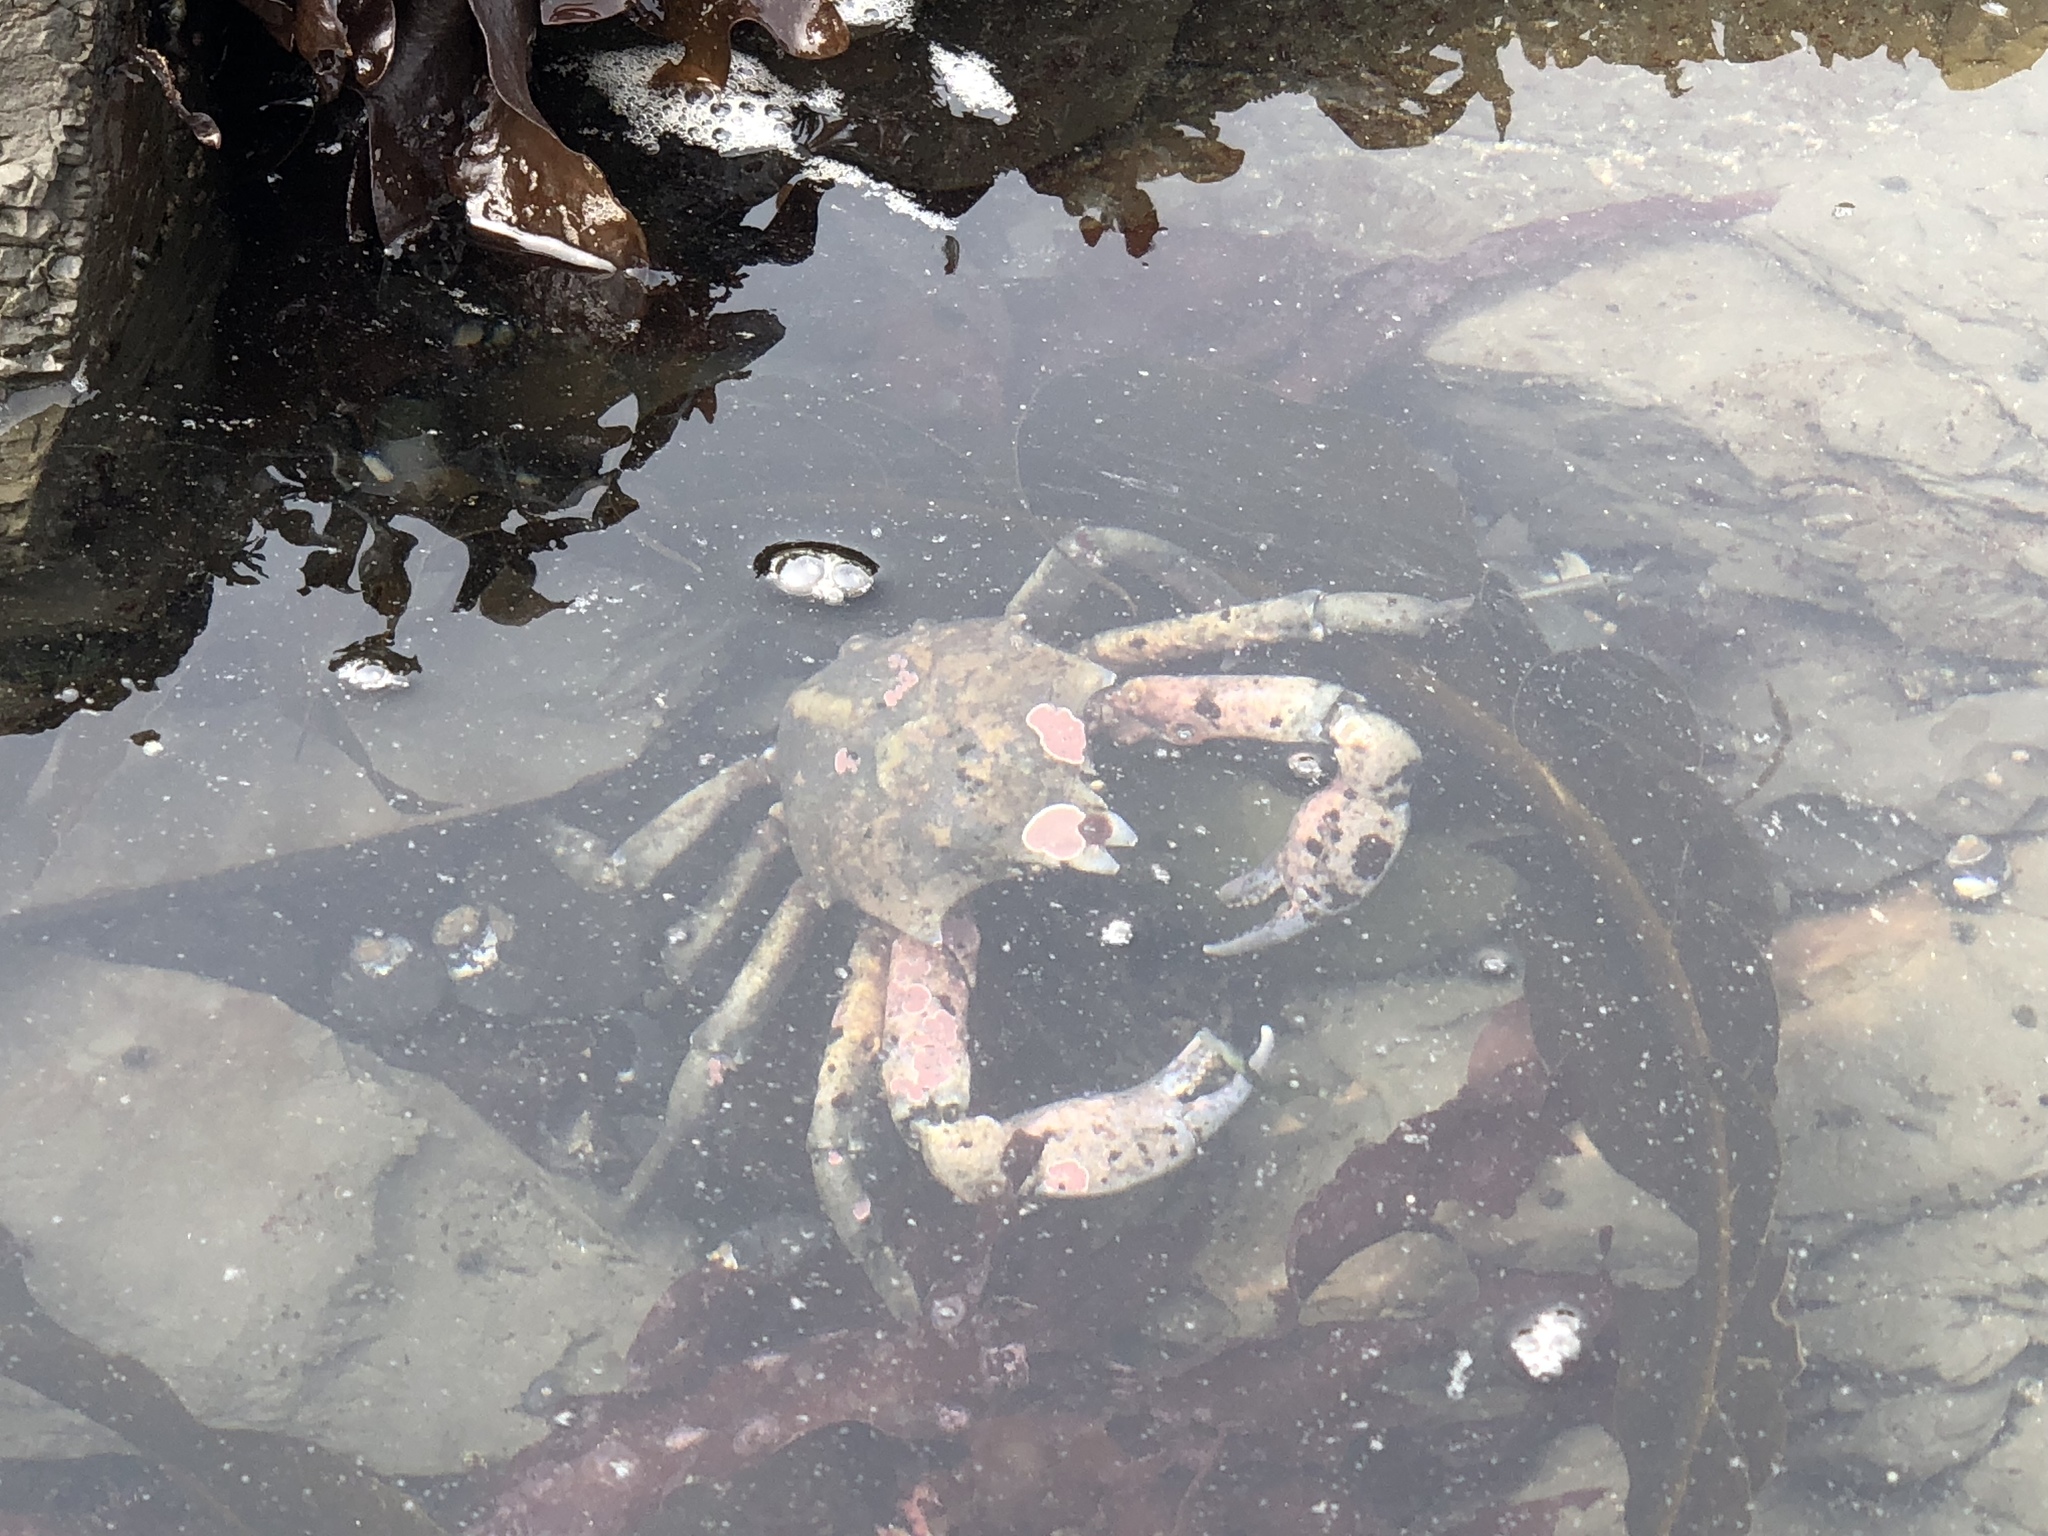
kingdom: Animalia
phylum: Arthropoda
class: Malacostraca
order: Decapoda
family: Epialtidae
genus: Pugettia
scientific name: Pugettia producta
